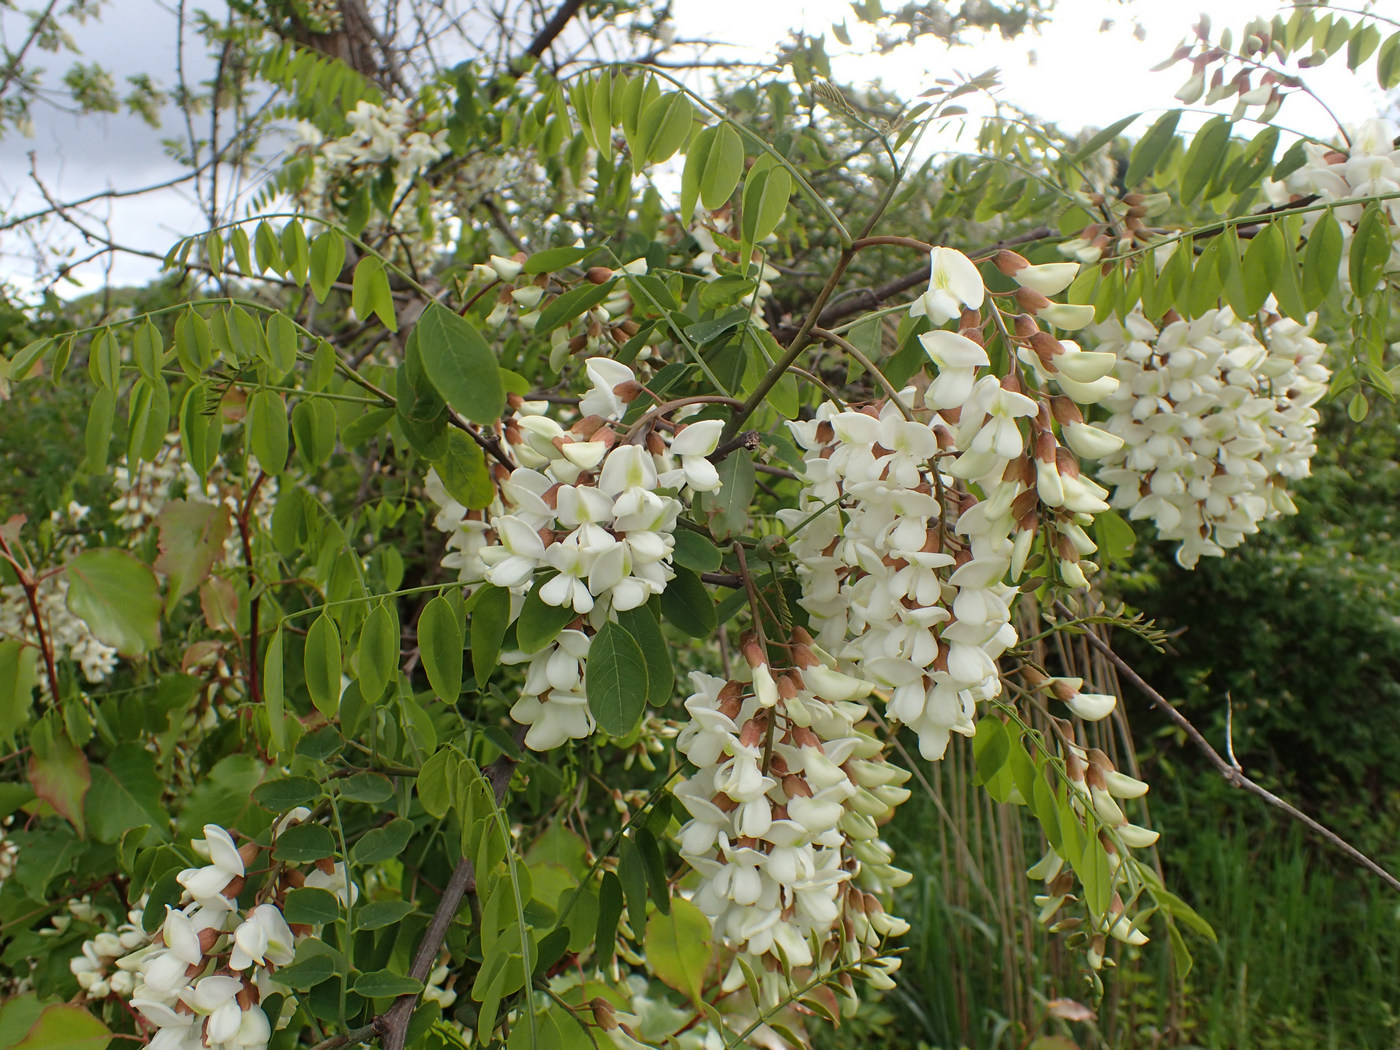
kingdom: Plantae
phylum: Tracheophyta
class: Magnoliopsida
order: Fabales
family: Fabaceae
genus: Robinia
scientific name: Robinia pseudoacacia
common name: Black locust
